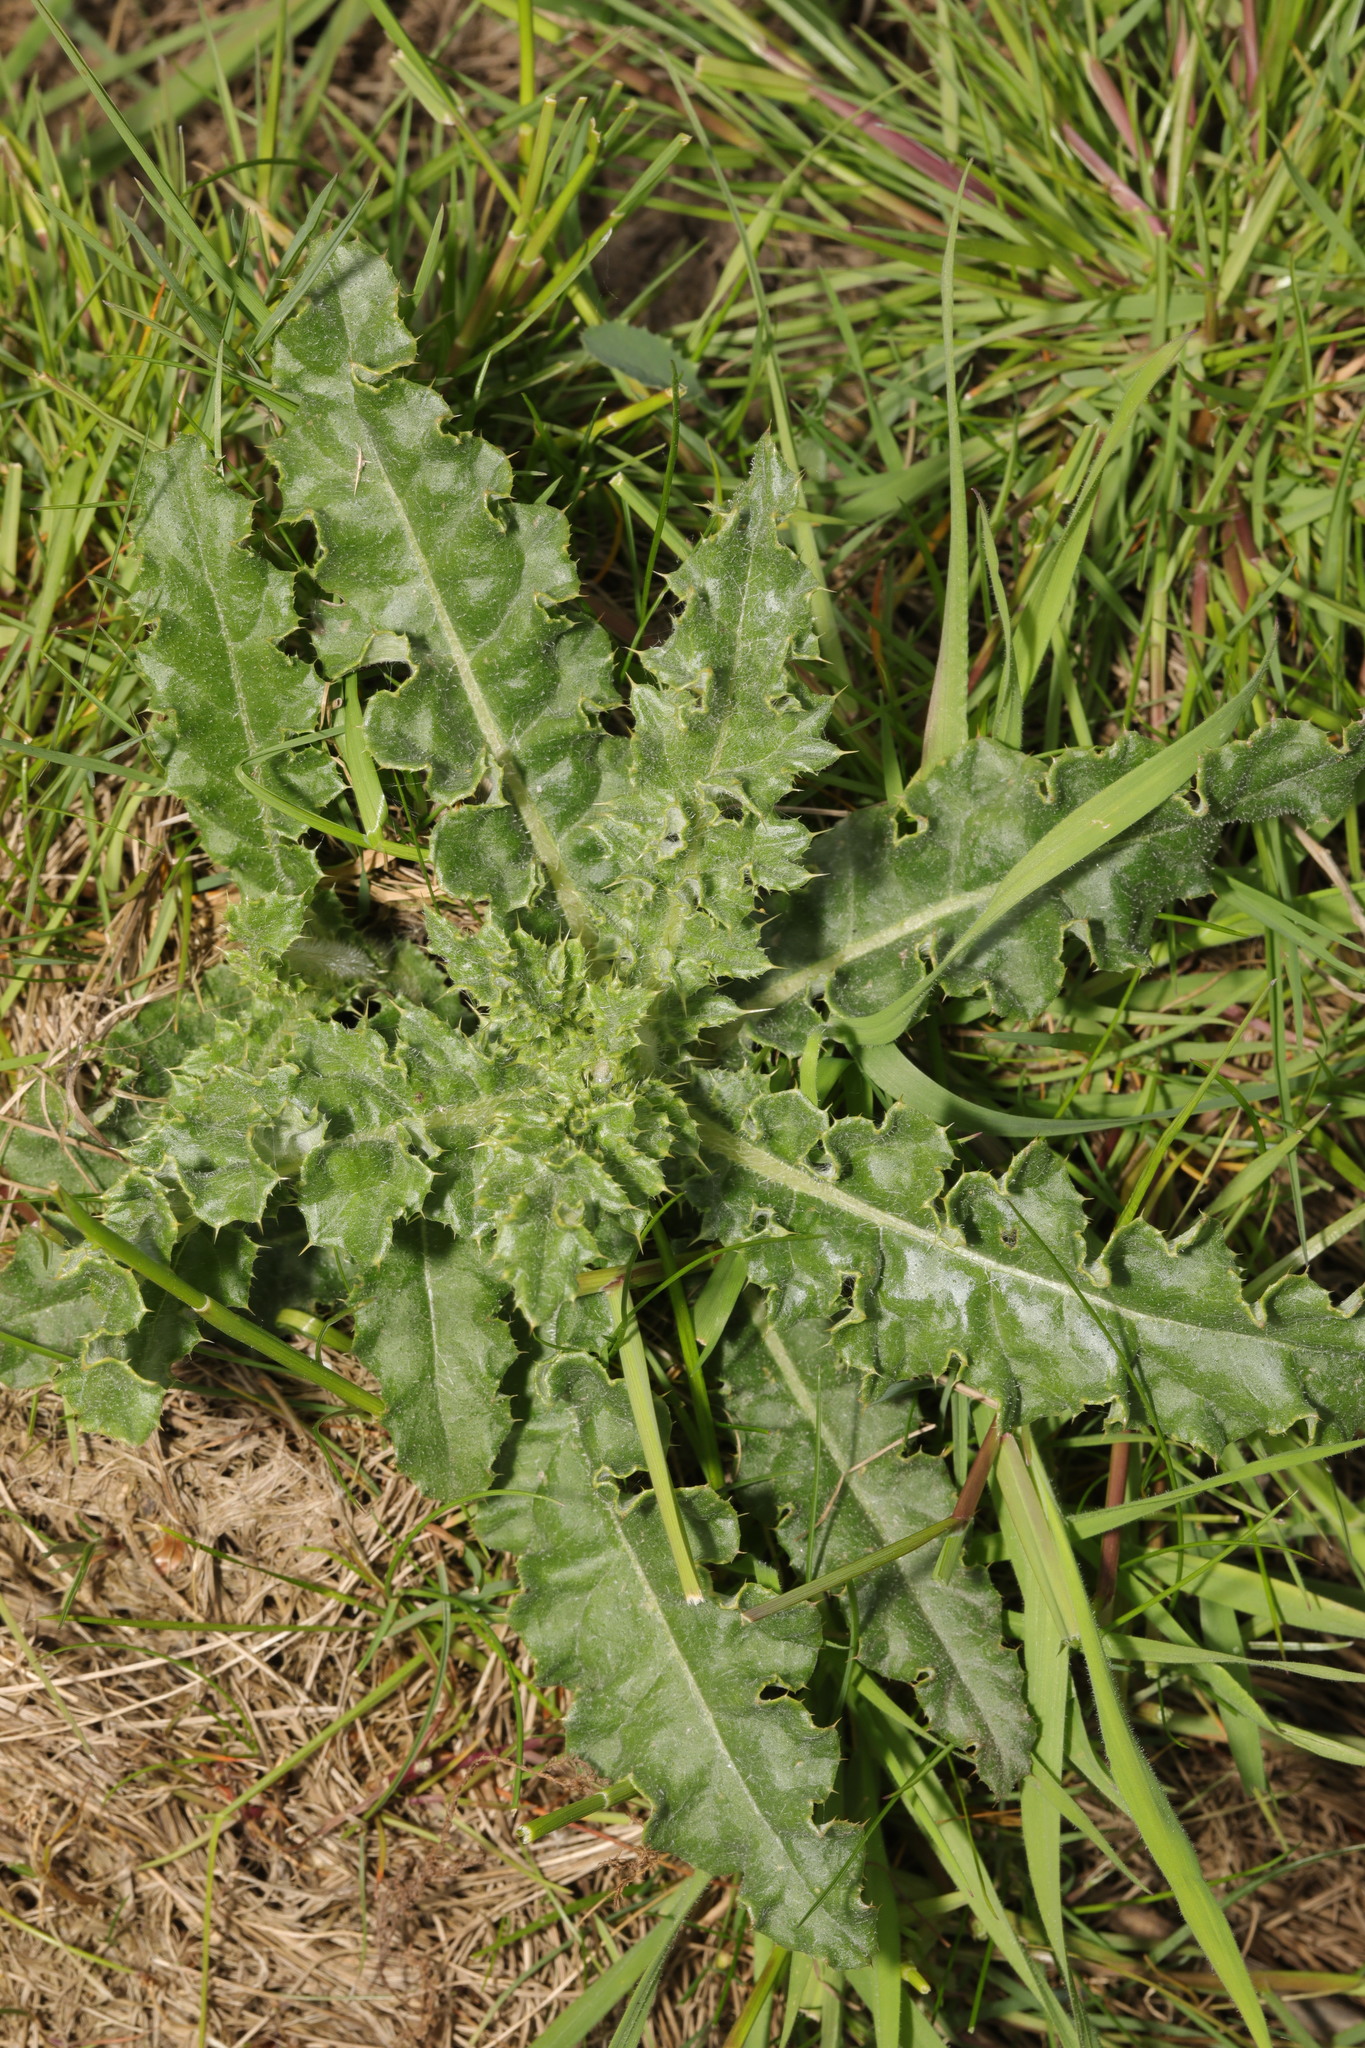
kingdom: Plantae
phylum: Tracheophyta
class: Magnoliopsida
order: Asterales
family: Asteraceae
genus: Cirsium
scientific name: Cirsium arvense
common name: Creeping thistle
